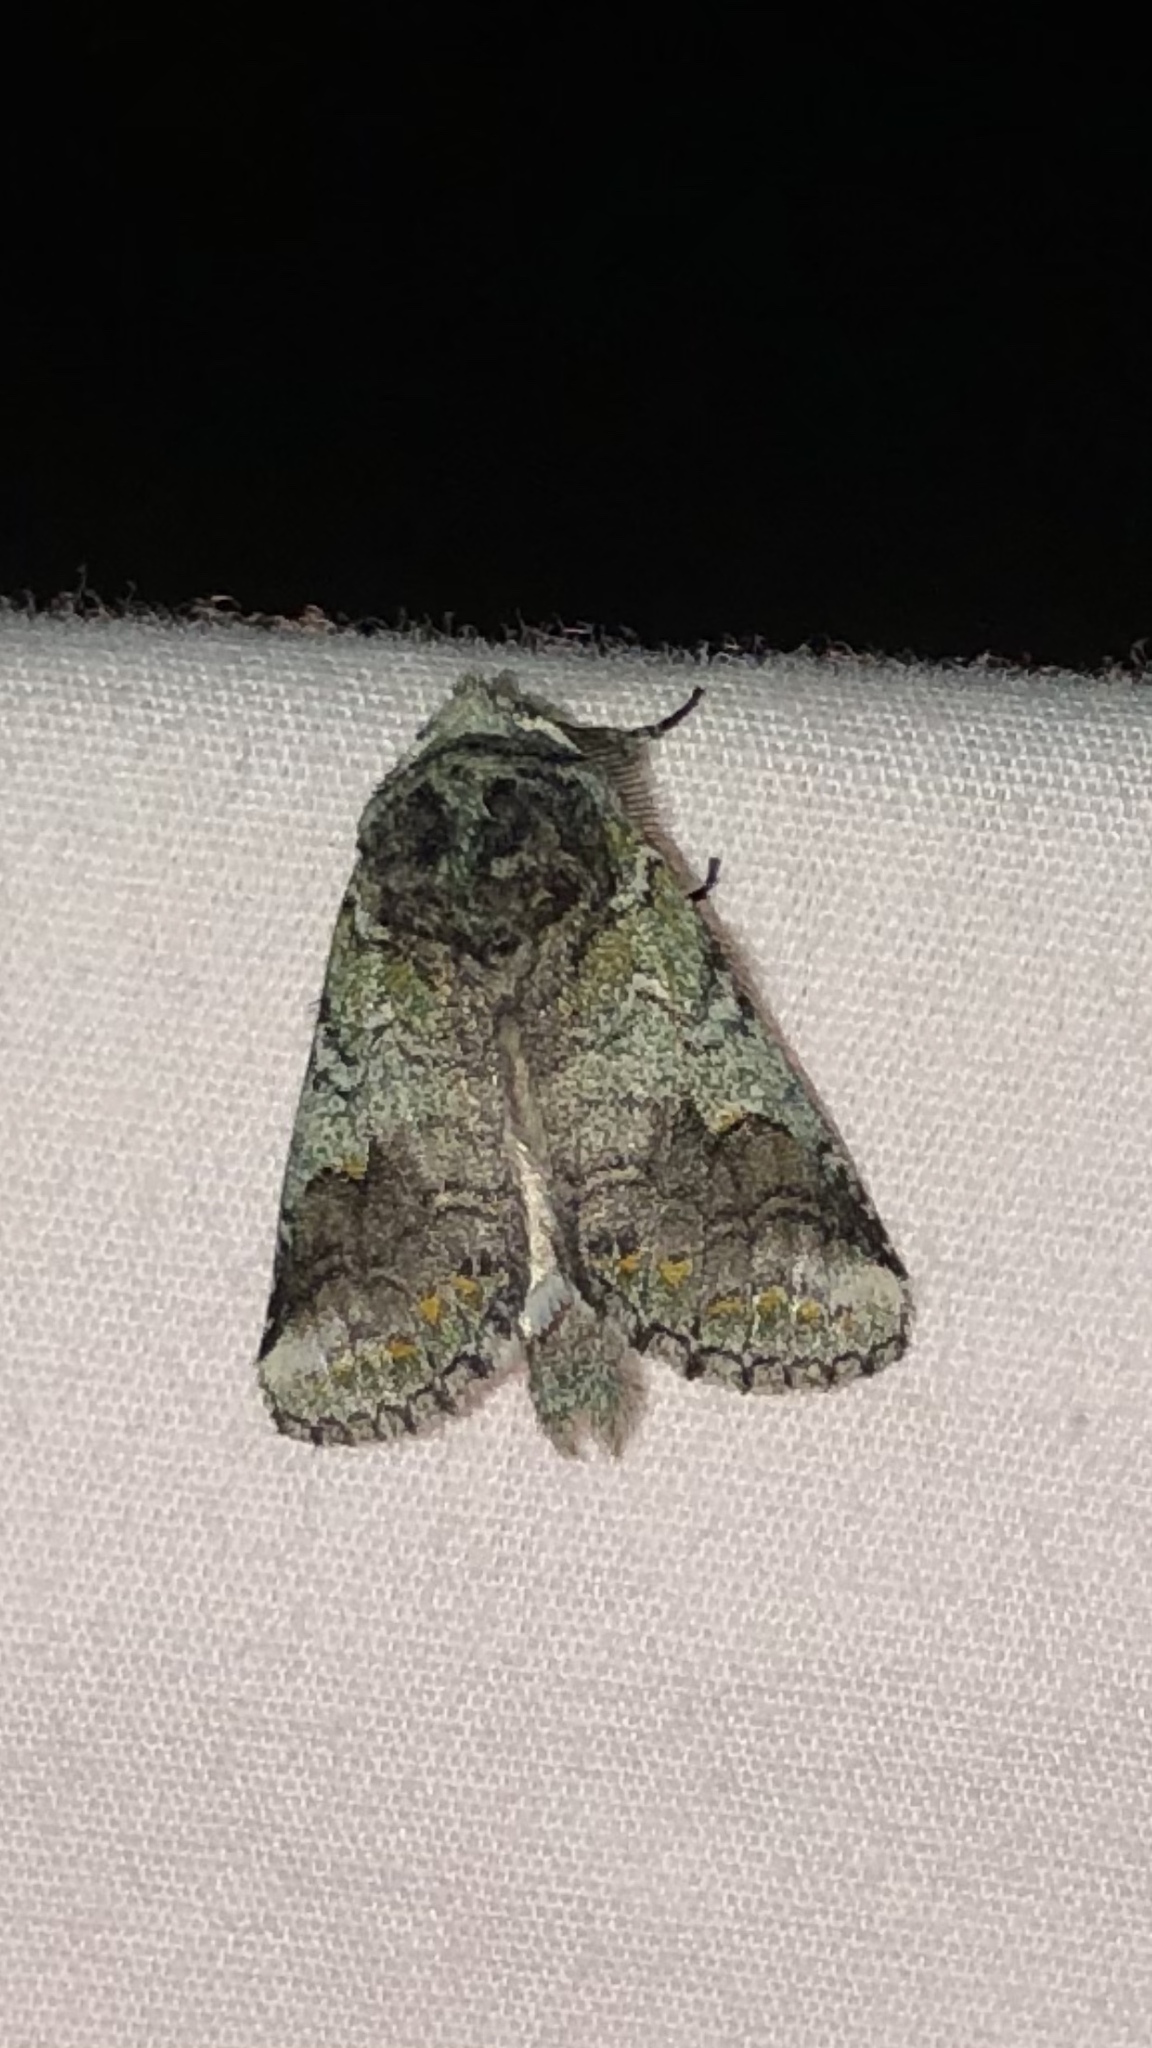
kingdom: Animalia
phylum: Arthropoda
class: Insecta
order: Lepidoptera
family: Notodontidae
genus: Litodonta
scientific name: Litodonta hydromeli
